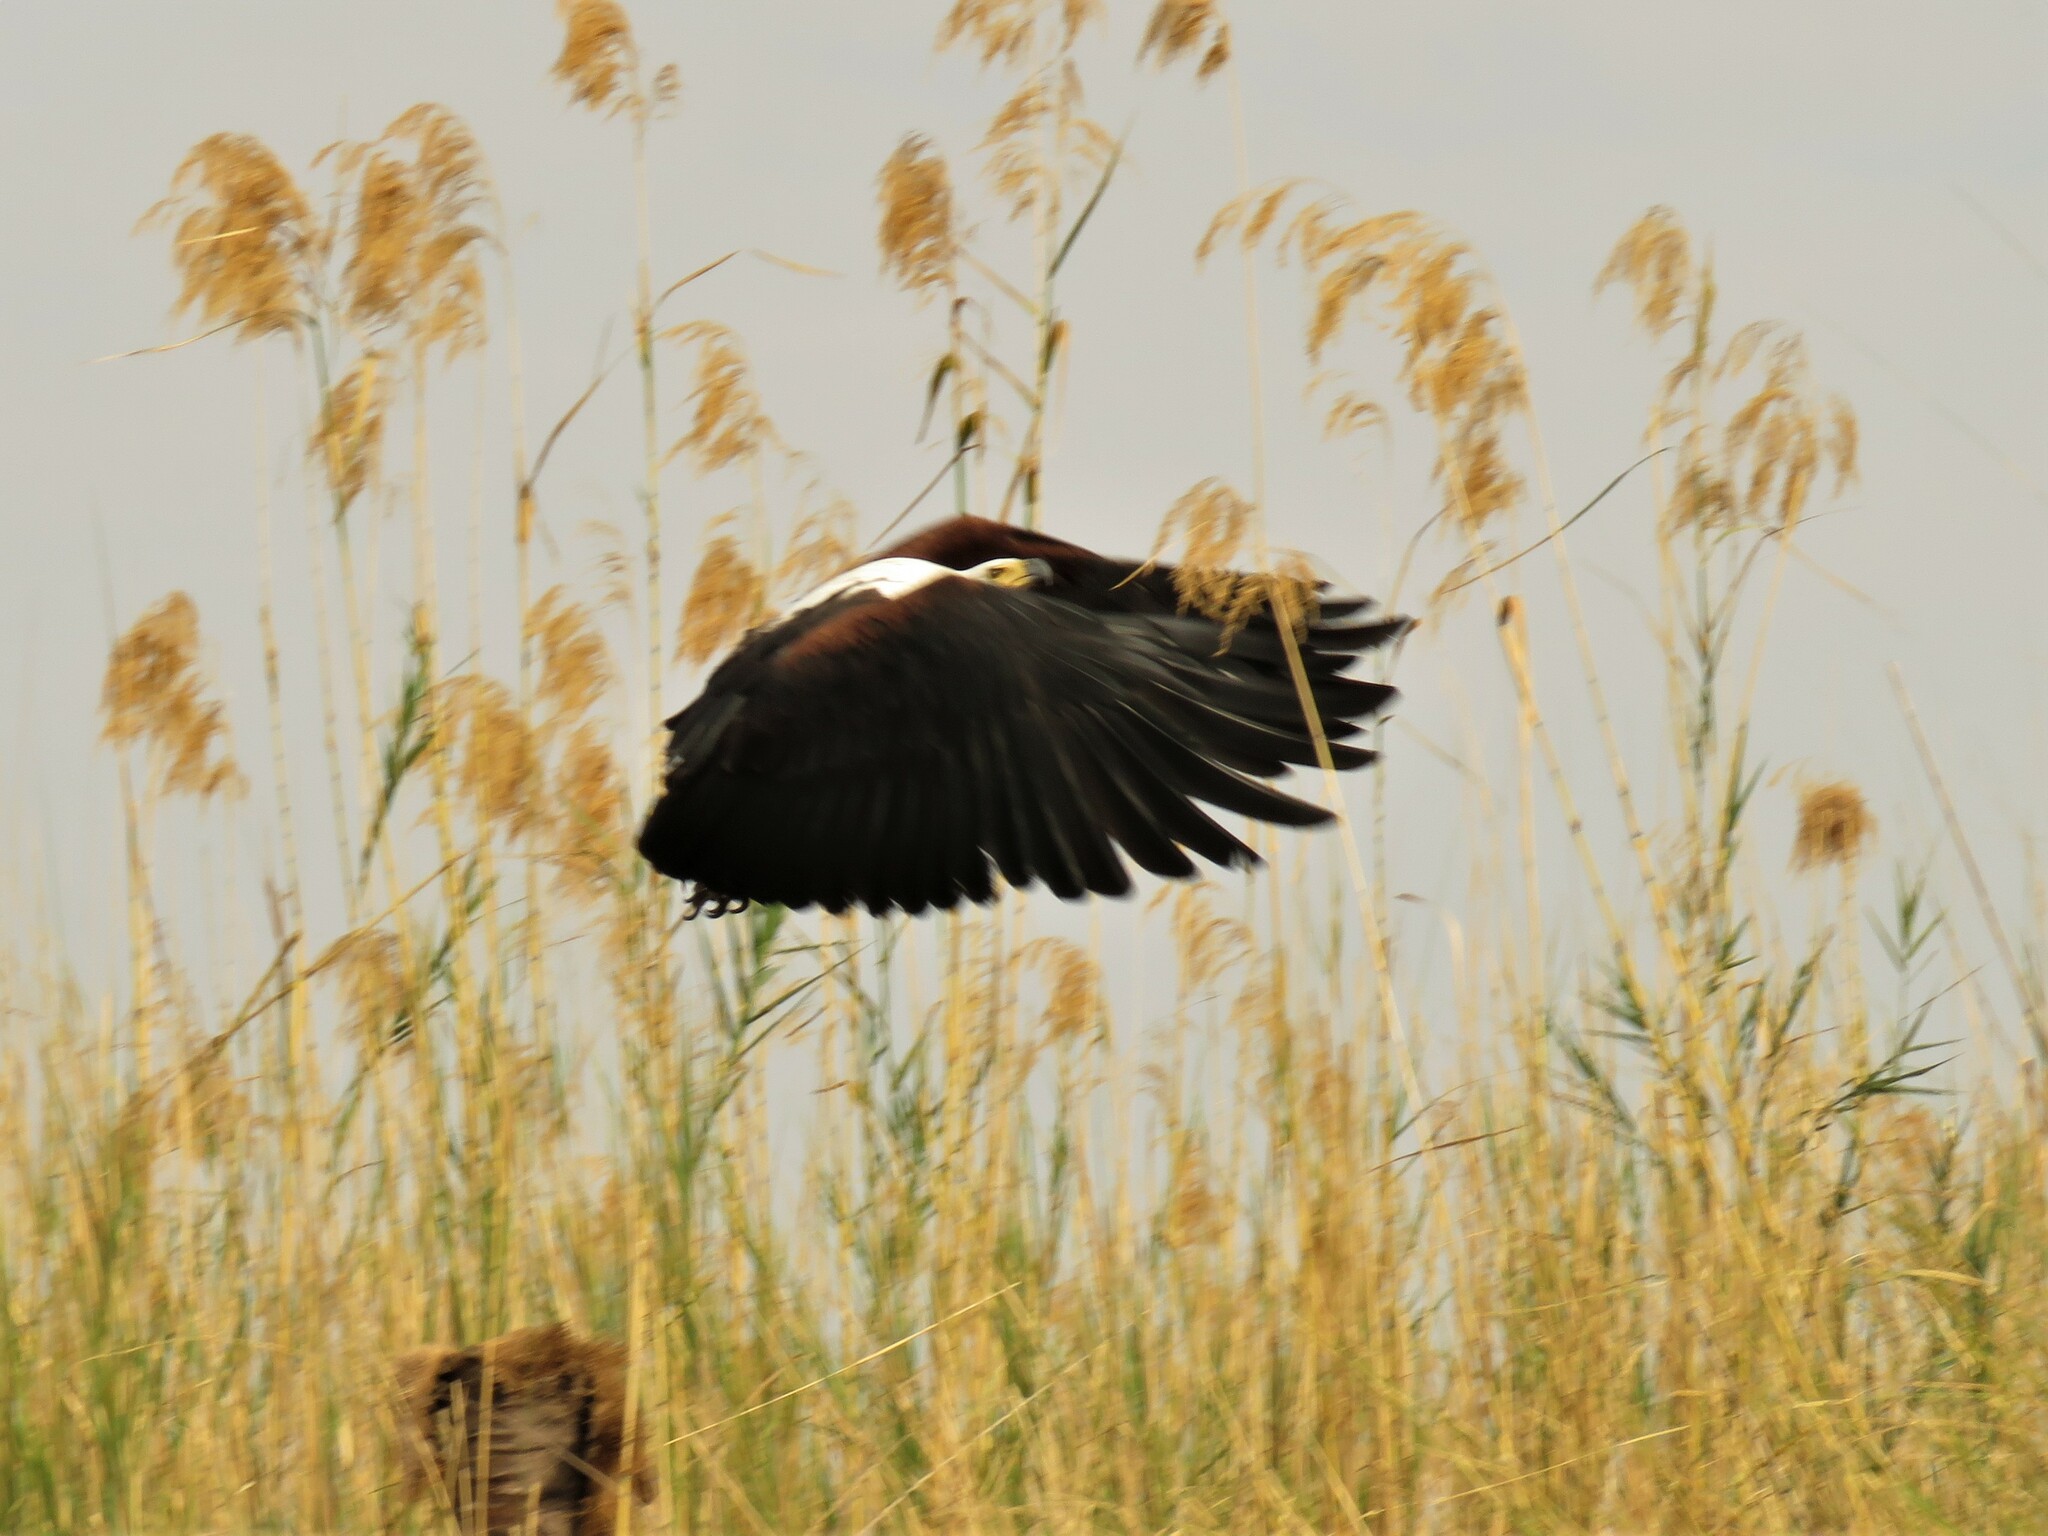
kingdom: Animalia
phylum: Chordata
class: Aves
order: Accipitriformes
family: Accipitridae
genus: Haliaeetus
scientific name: Haliaeetus vocifer
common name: African fish eagle
